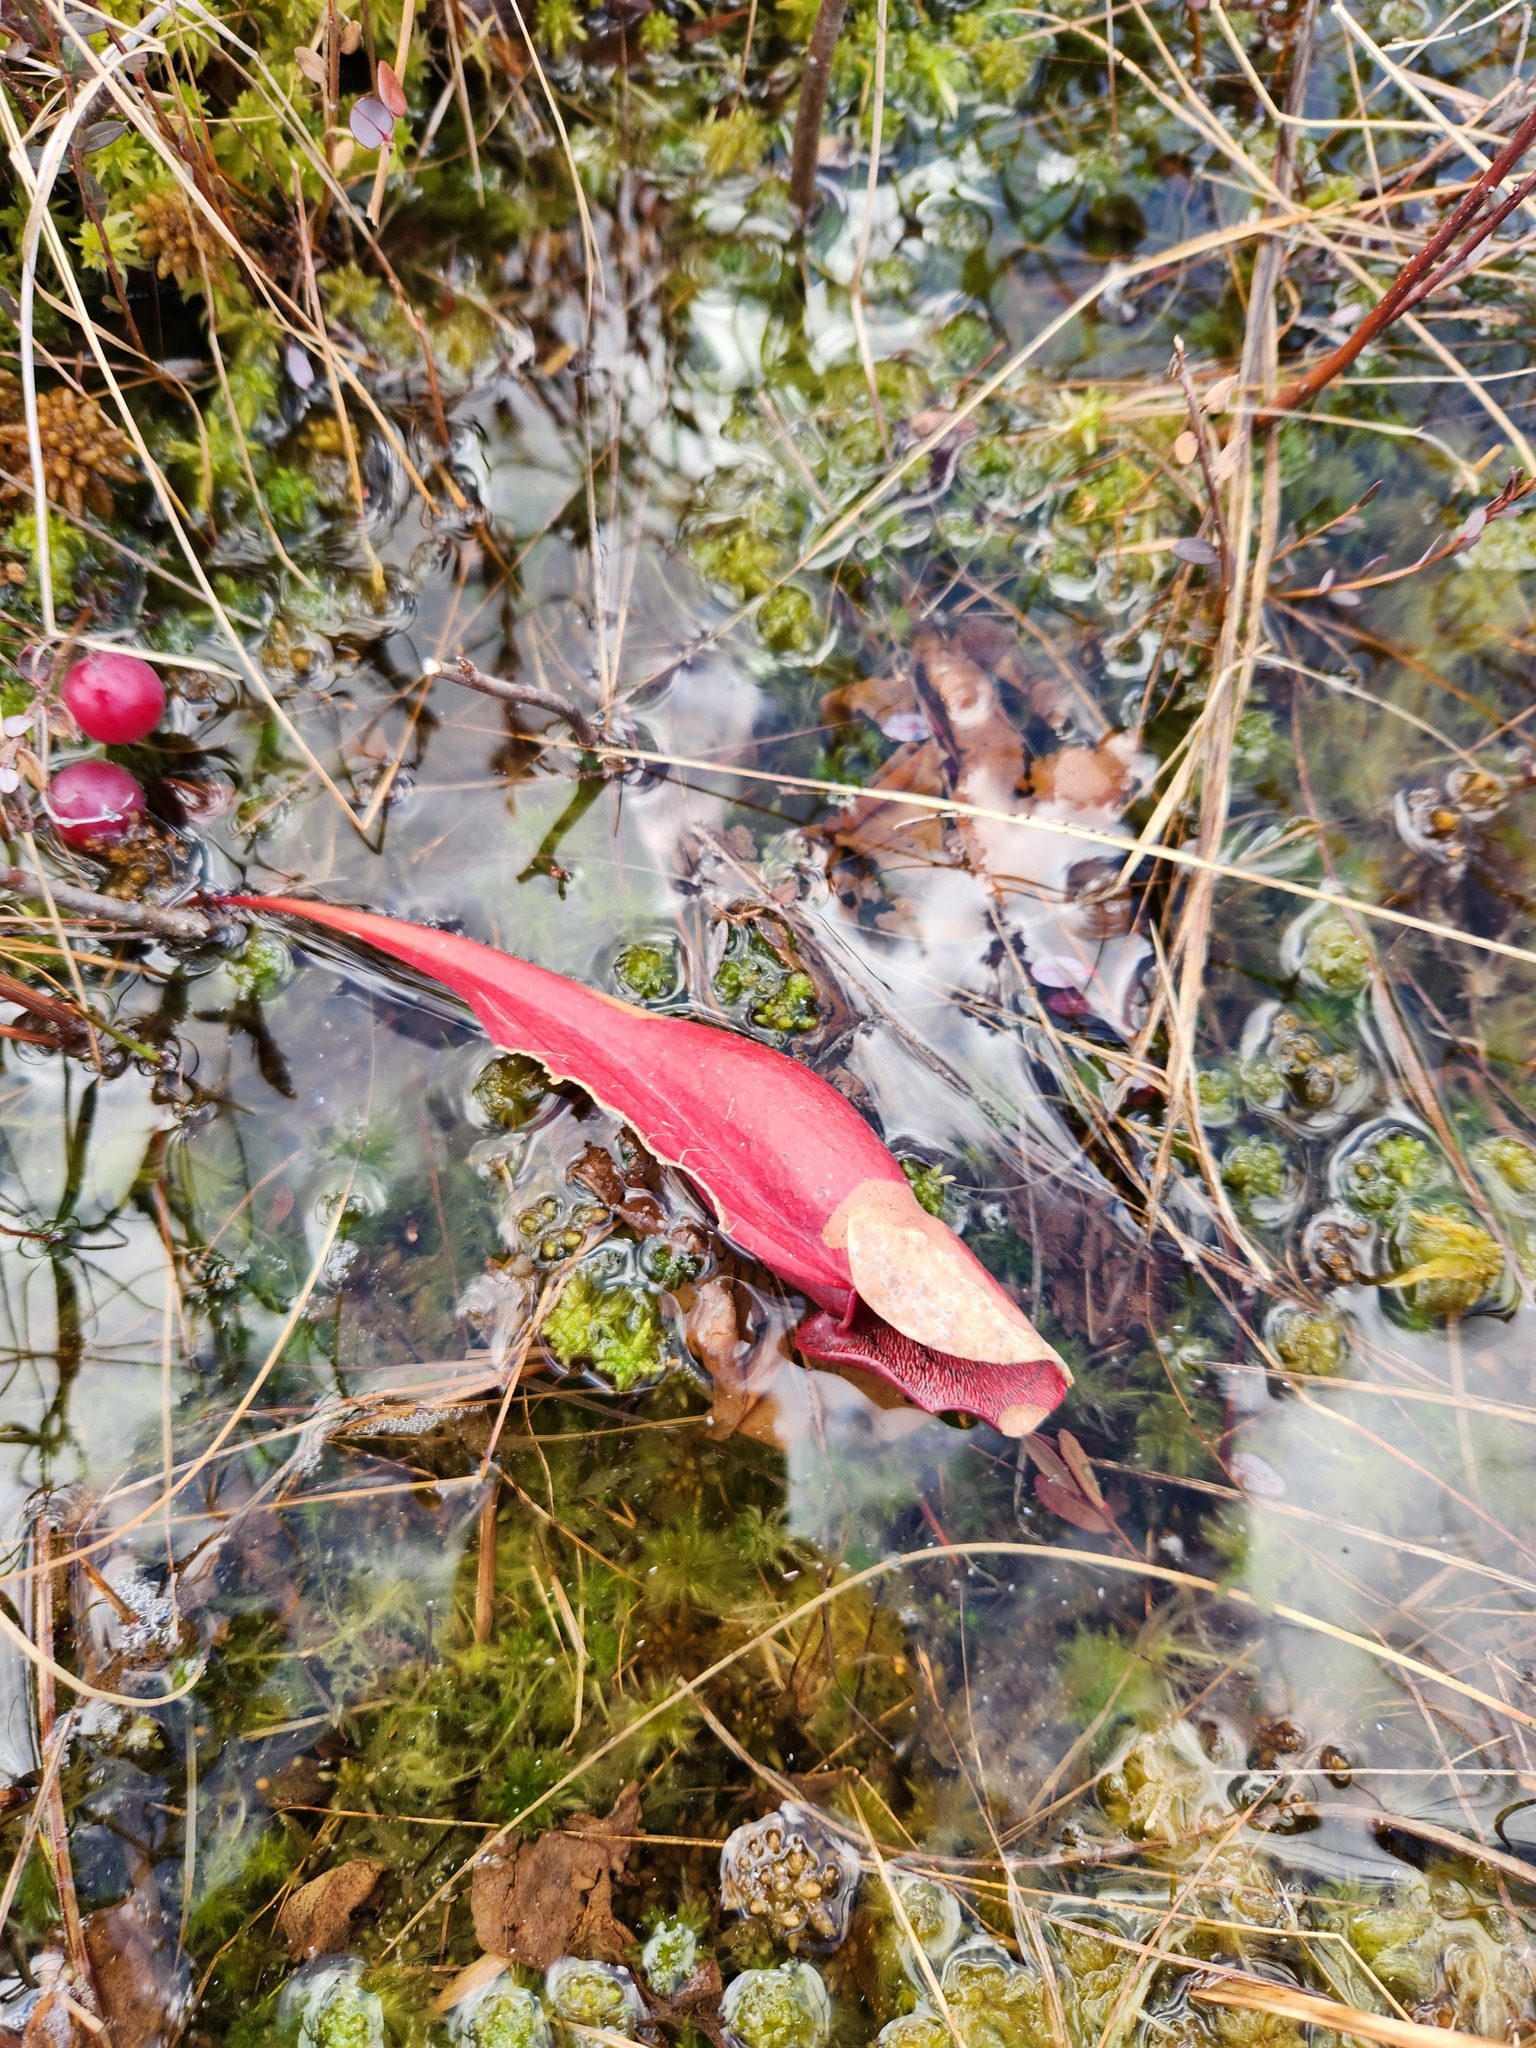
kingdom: Plantae
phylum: Tracheophyta
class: Magnoliopsida
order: Ericales
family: Sarraceniaceae
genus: Sarracenia
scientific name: Sarracenia purpurea
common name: Pitcherplant
